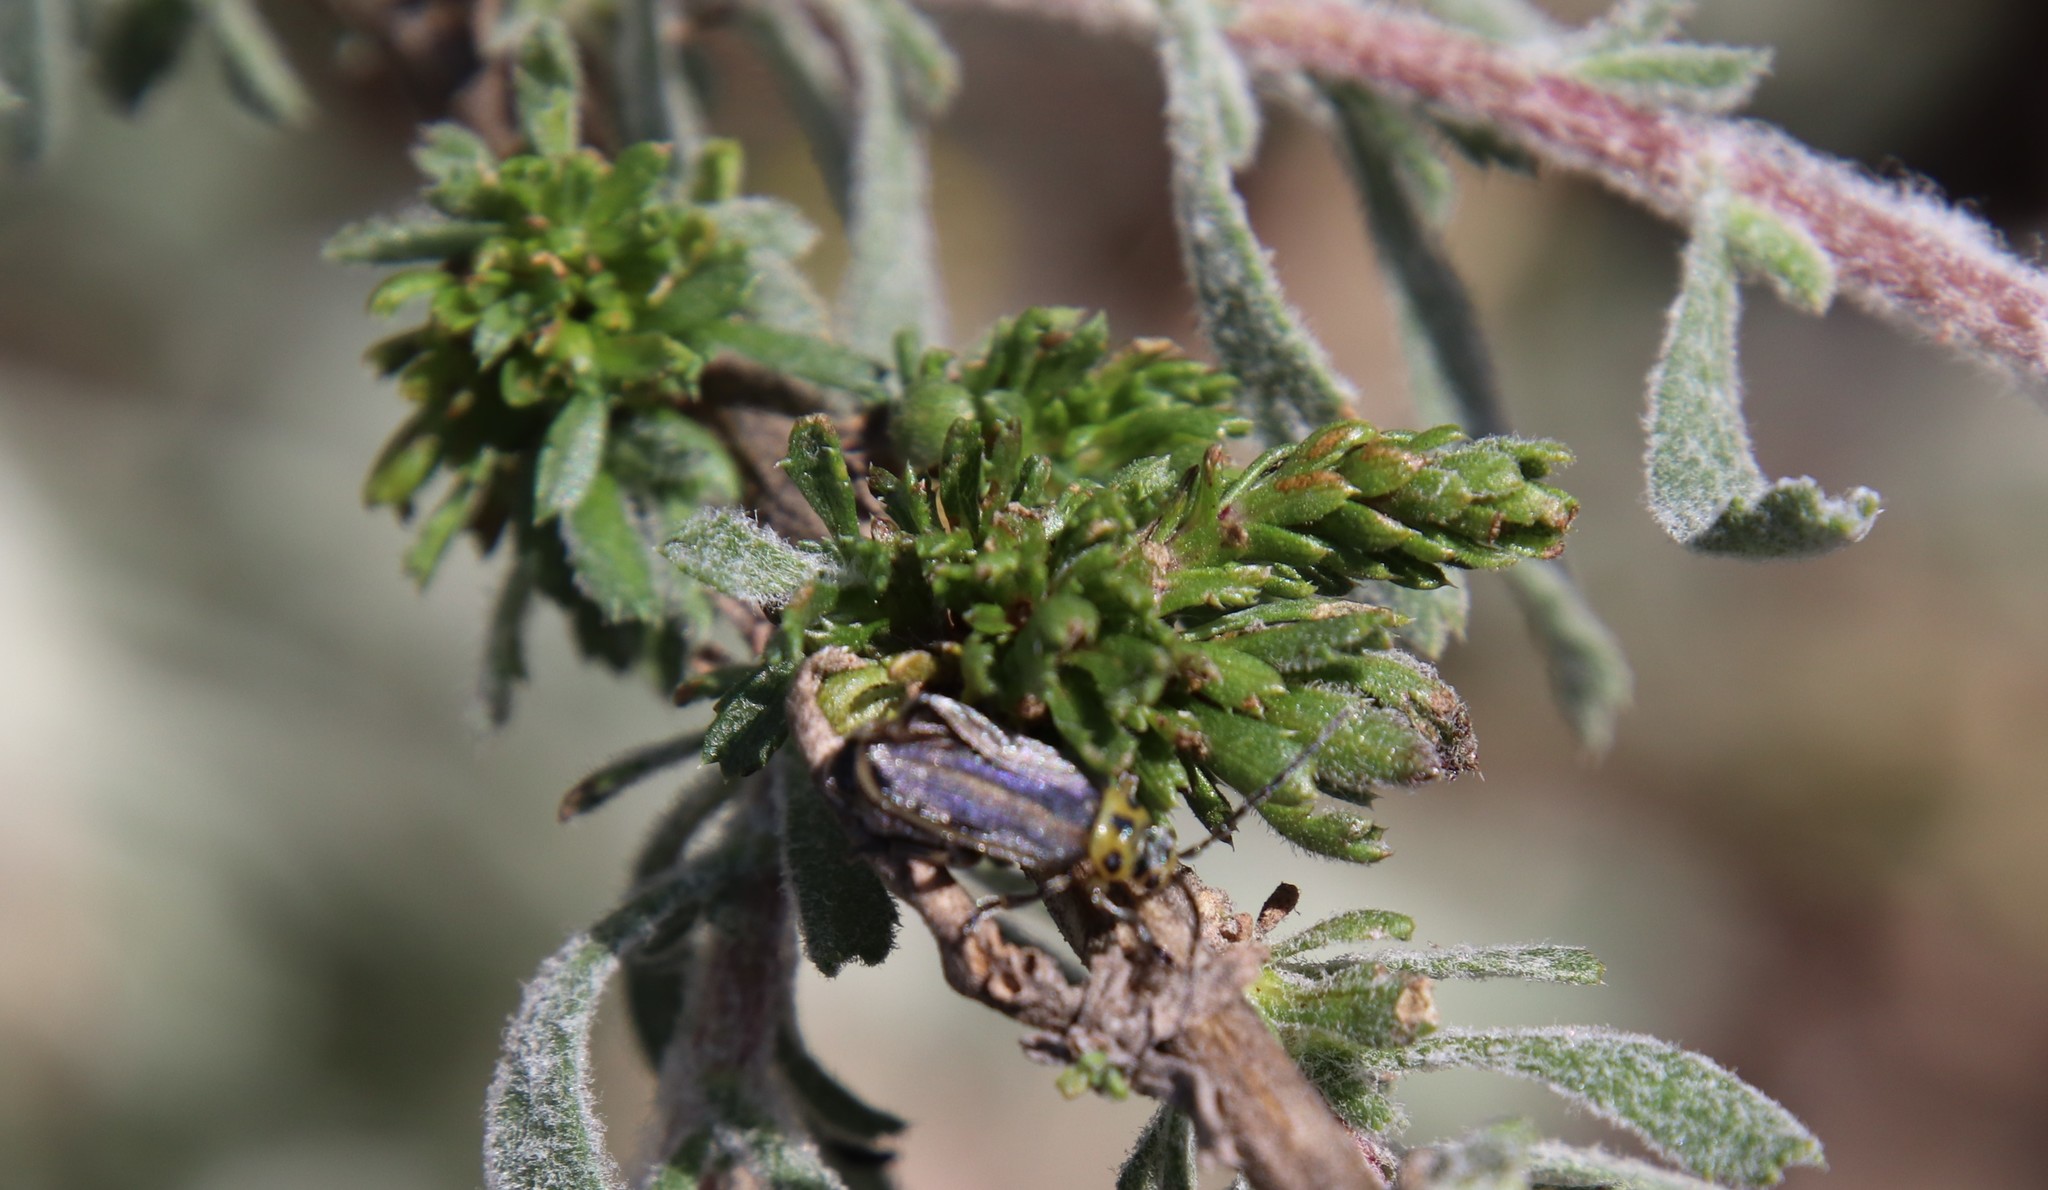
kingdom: Animalia
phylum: Arthropoda
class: Insecta
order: Coleoptera
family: Chrysomelidae
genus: Trirhabda
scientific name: Trirhabda luteocincta
